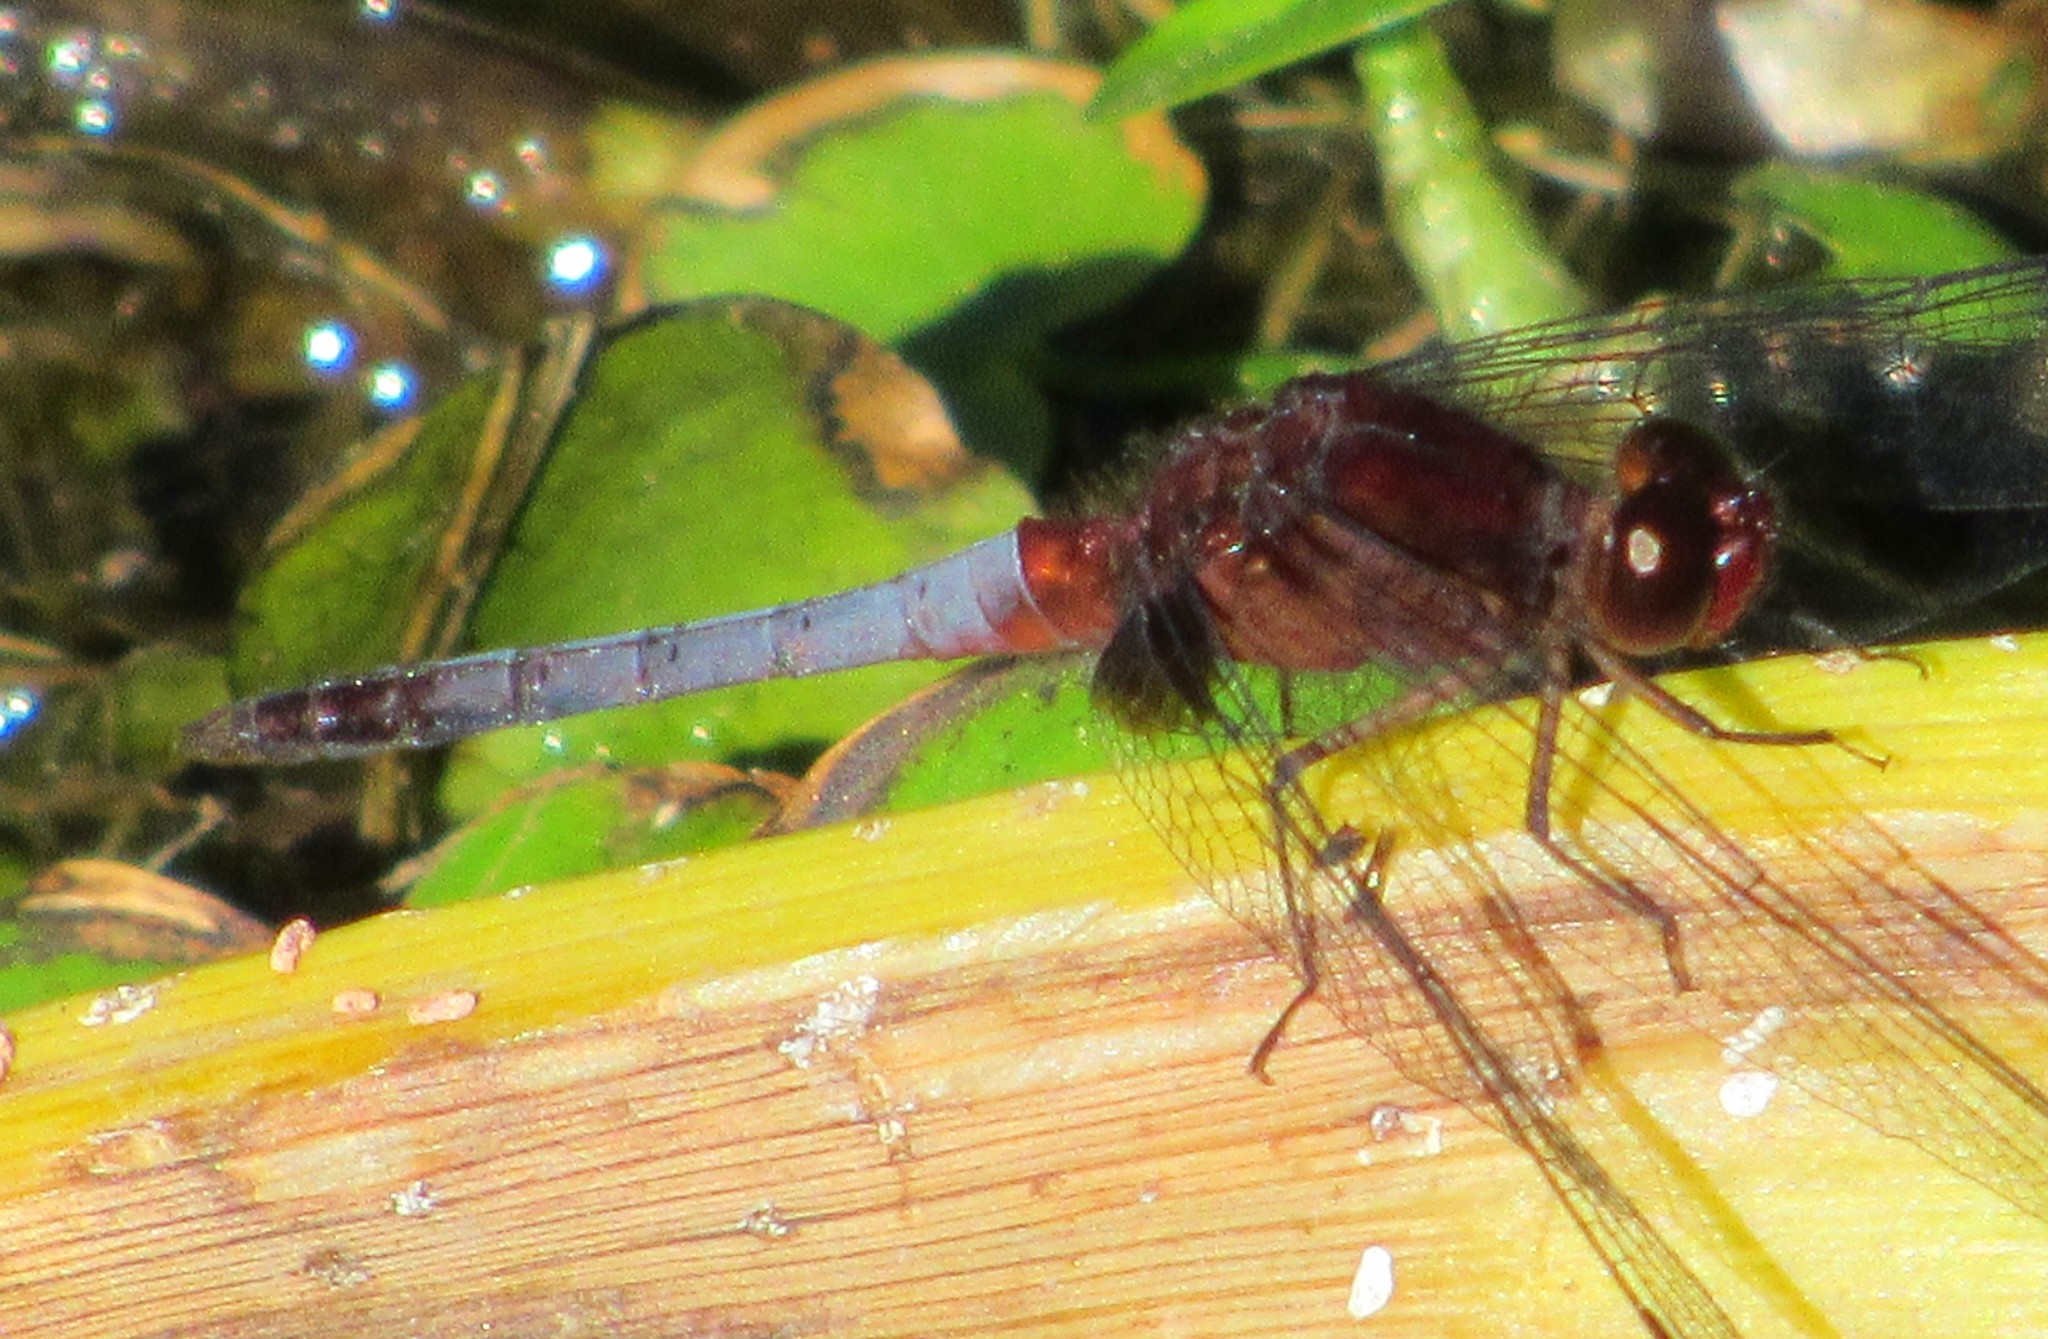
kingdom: Animalia
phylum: Arthropoda
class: Insecta
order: Odonata
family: Libellulidae
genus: Erythrodiplax
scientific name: Erythrodiplax fusca
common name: Red-faced dragonlet
